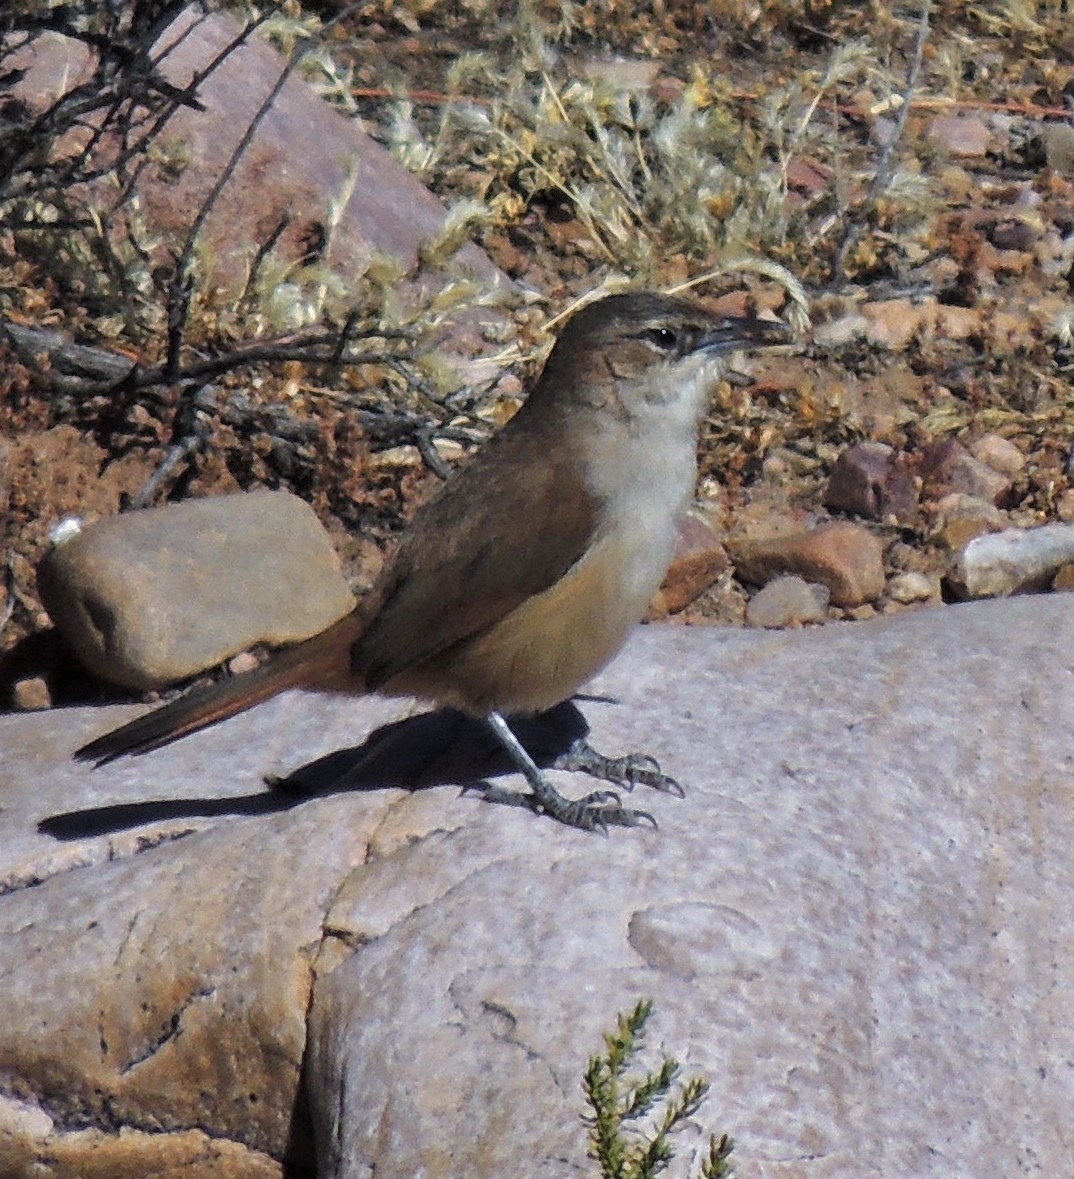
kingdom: Animalia
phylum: Chordata
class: Aves
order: Passeriformes
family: Furnariidae
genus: Phacellodomus
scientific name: Phacellodomus striaticeps
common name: Streak-fronted thornbird
